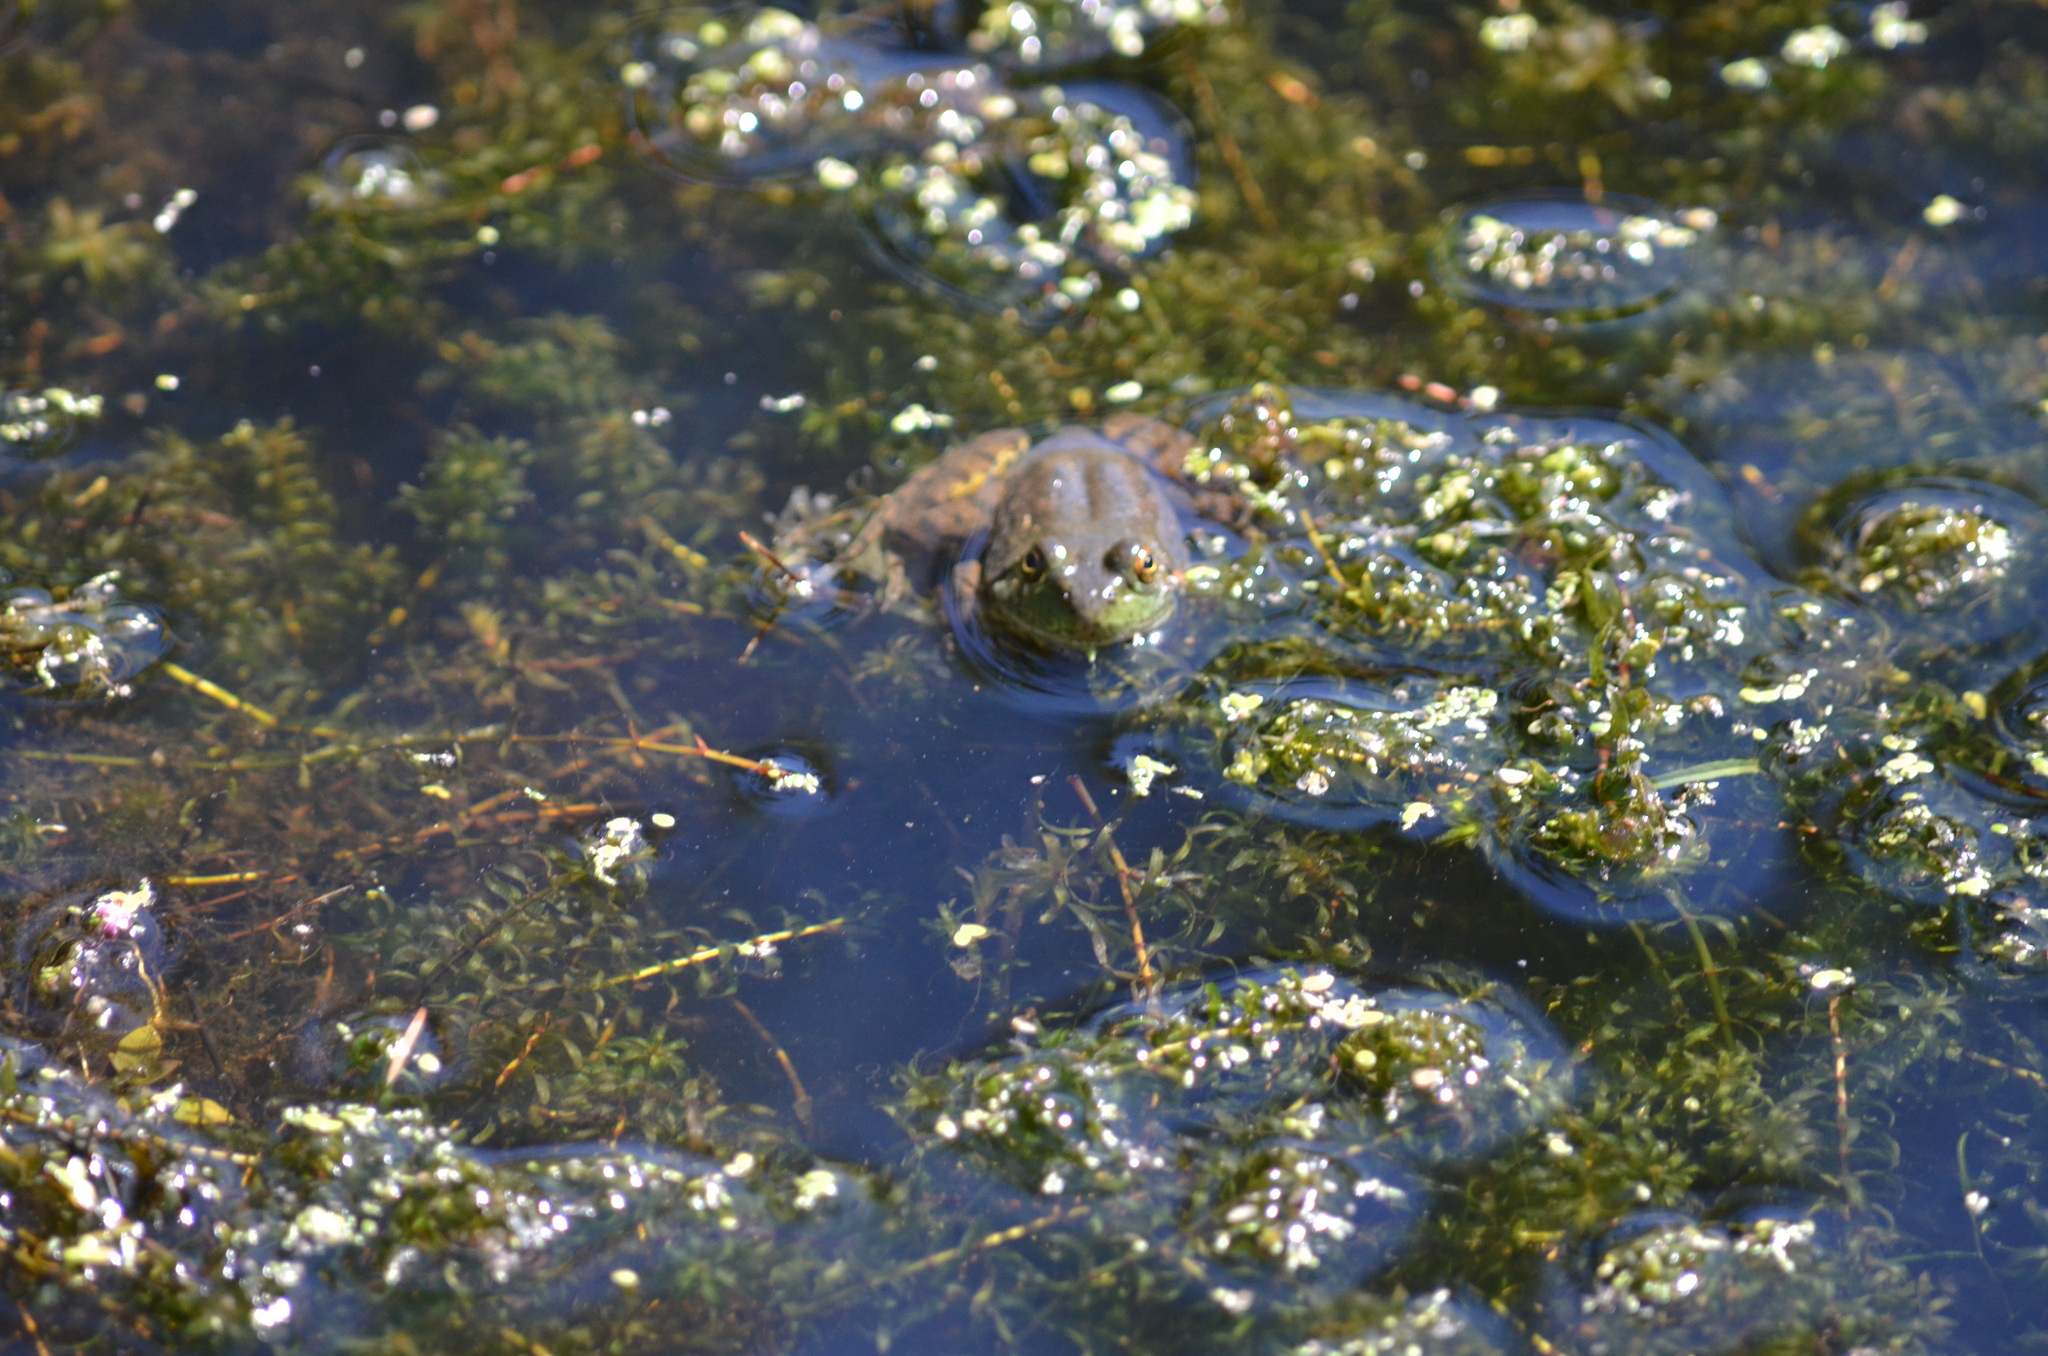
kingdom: Animalia
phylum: Chordata
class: Amphibia
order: Anura
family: Ranidae
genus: Lithobates
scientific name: Lithobates catesbeianus
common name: American bullfrog
